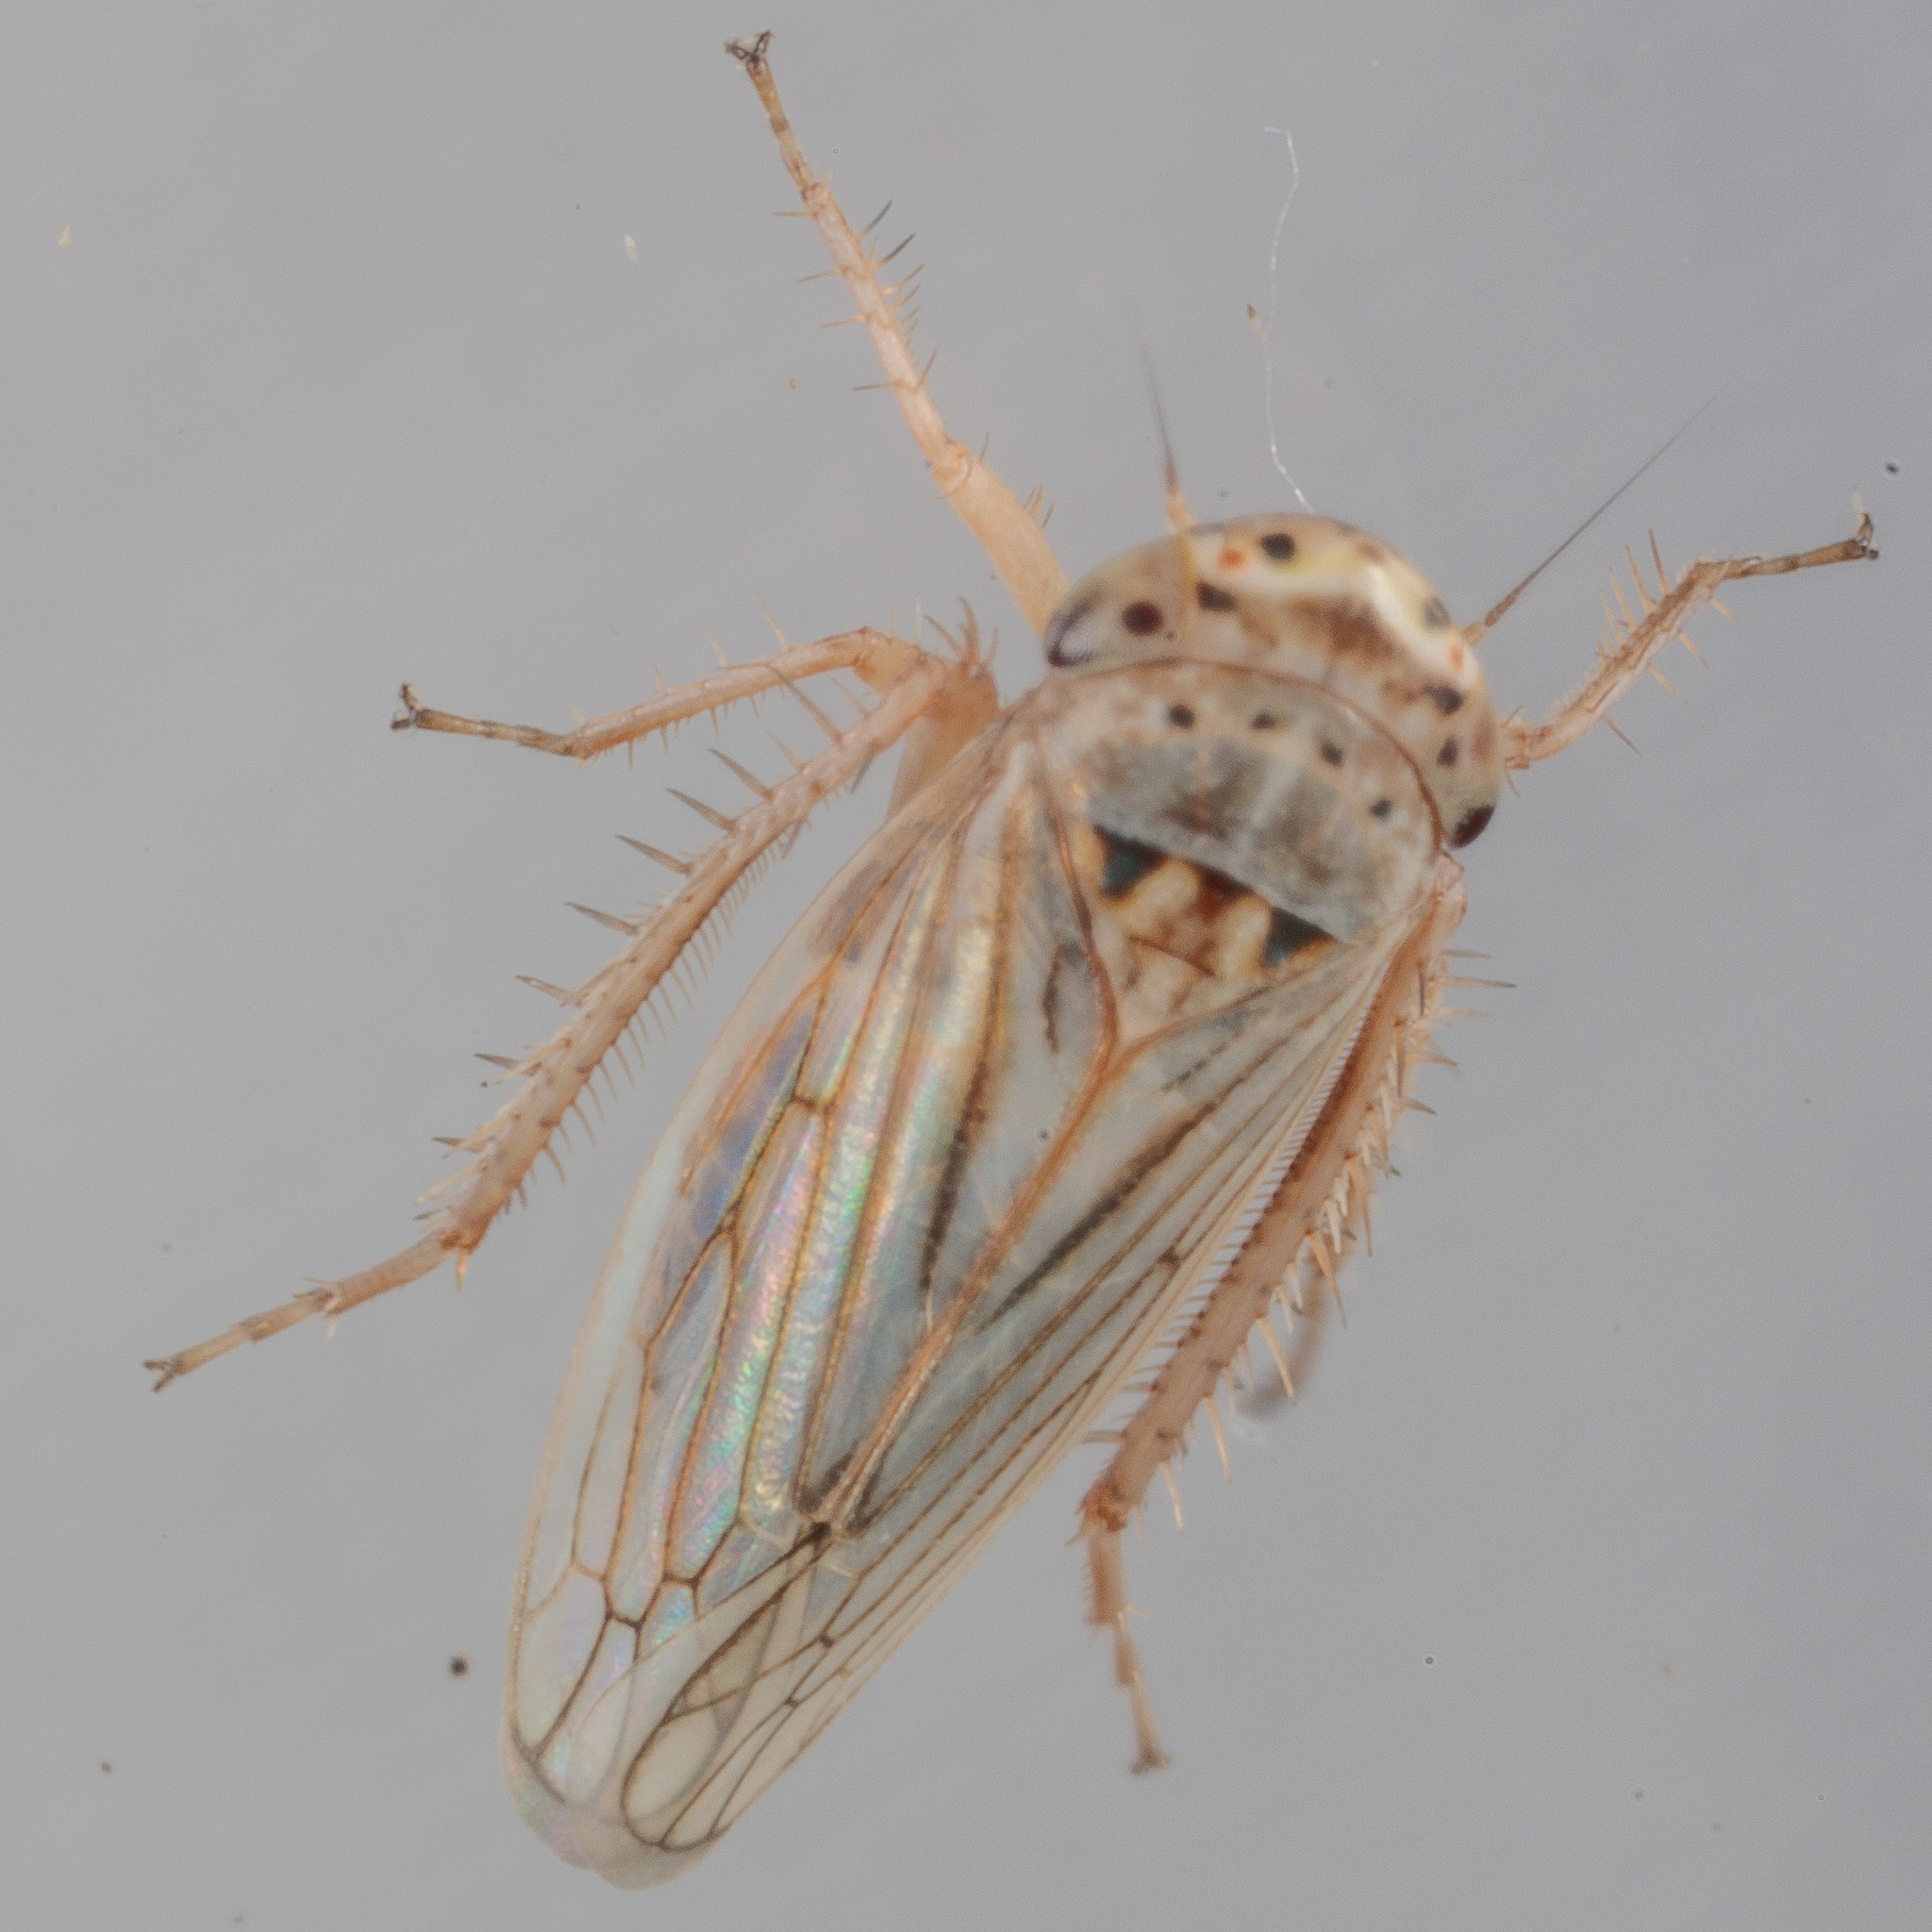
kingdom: Animalia
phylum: Arthropoda
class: Insecta
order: Hemiptera
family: Cicadellidae
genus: Exitianus
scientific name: Exitianus exitiosus
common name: Gray lawn leafhopper
